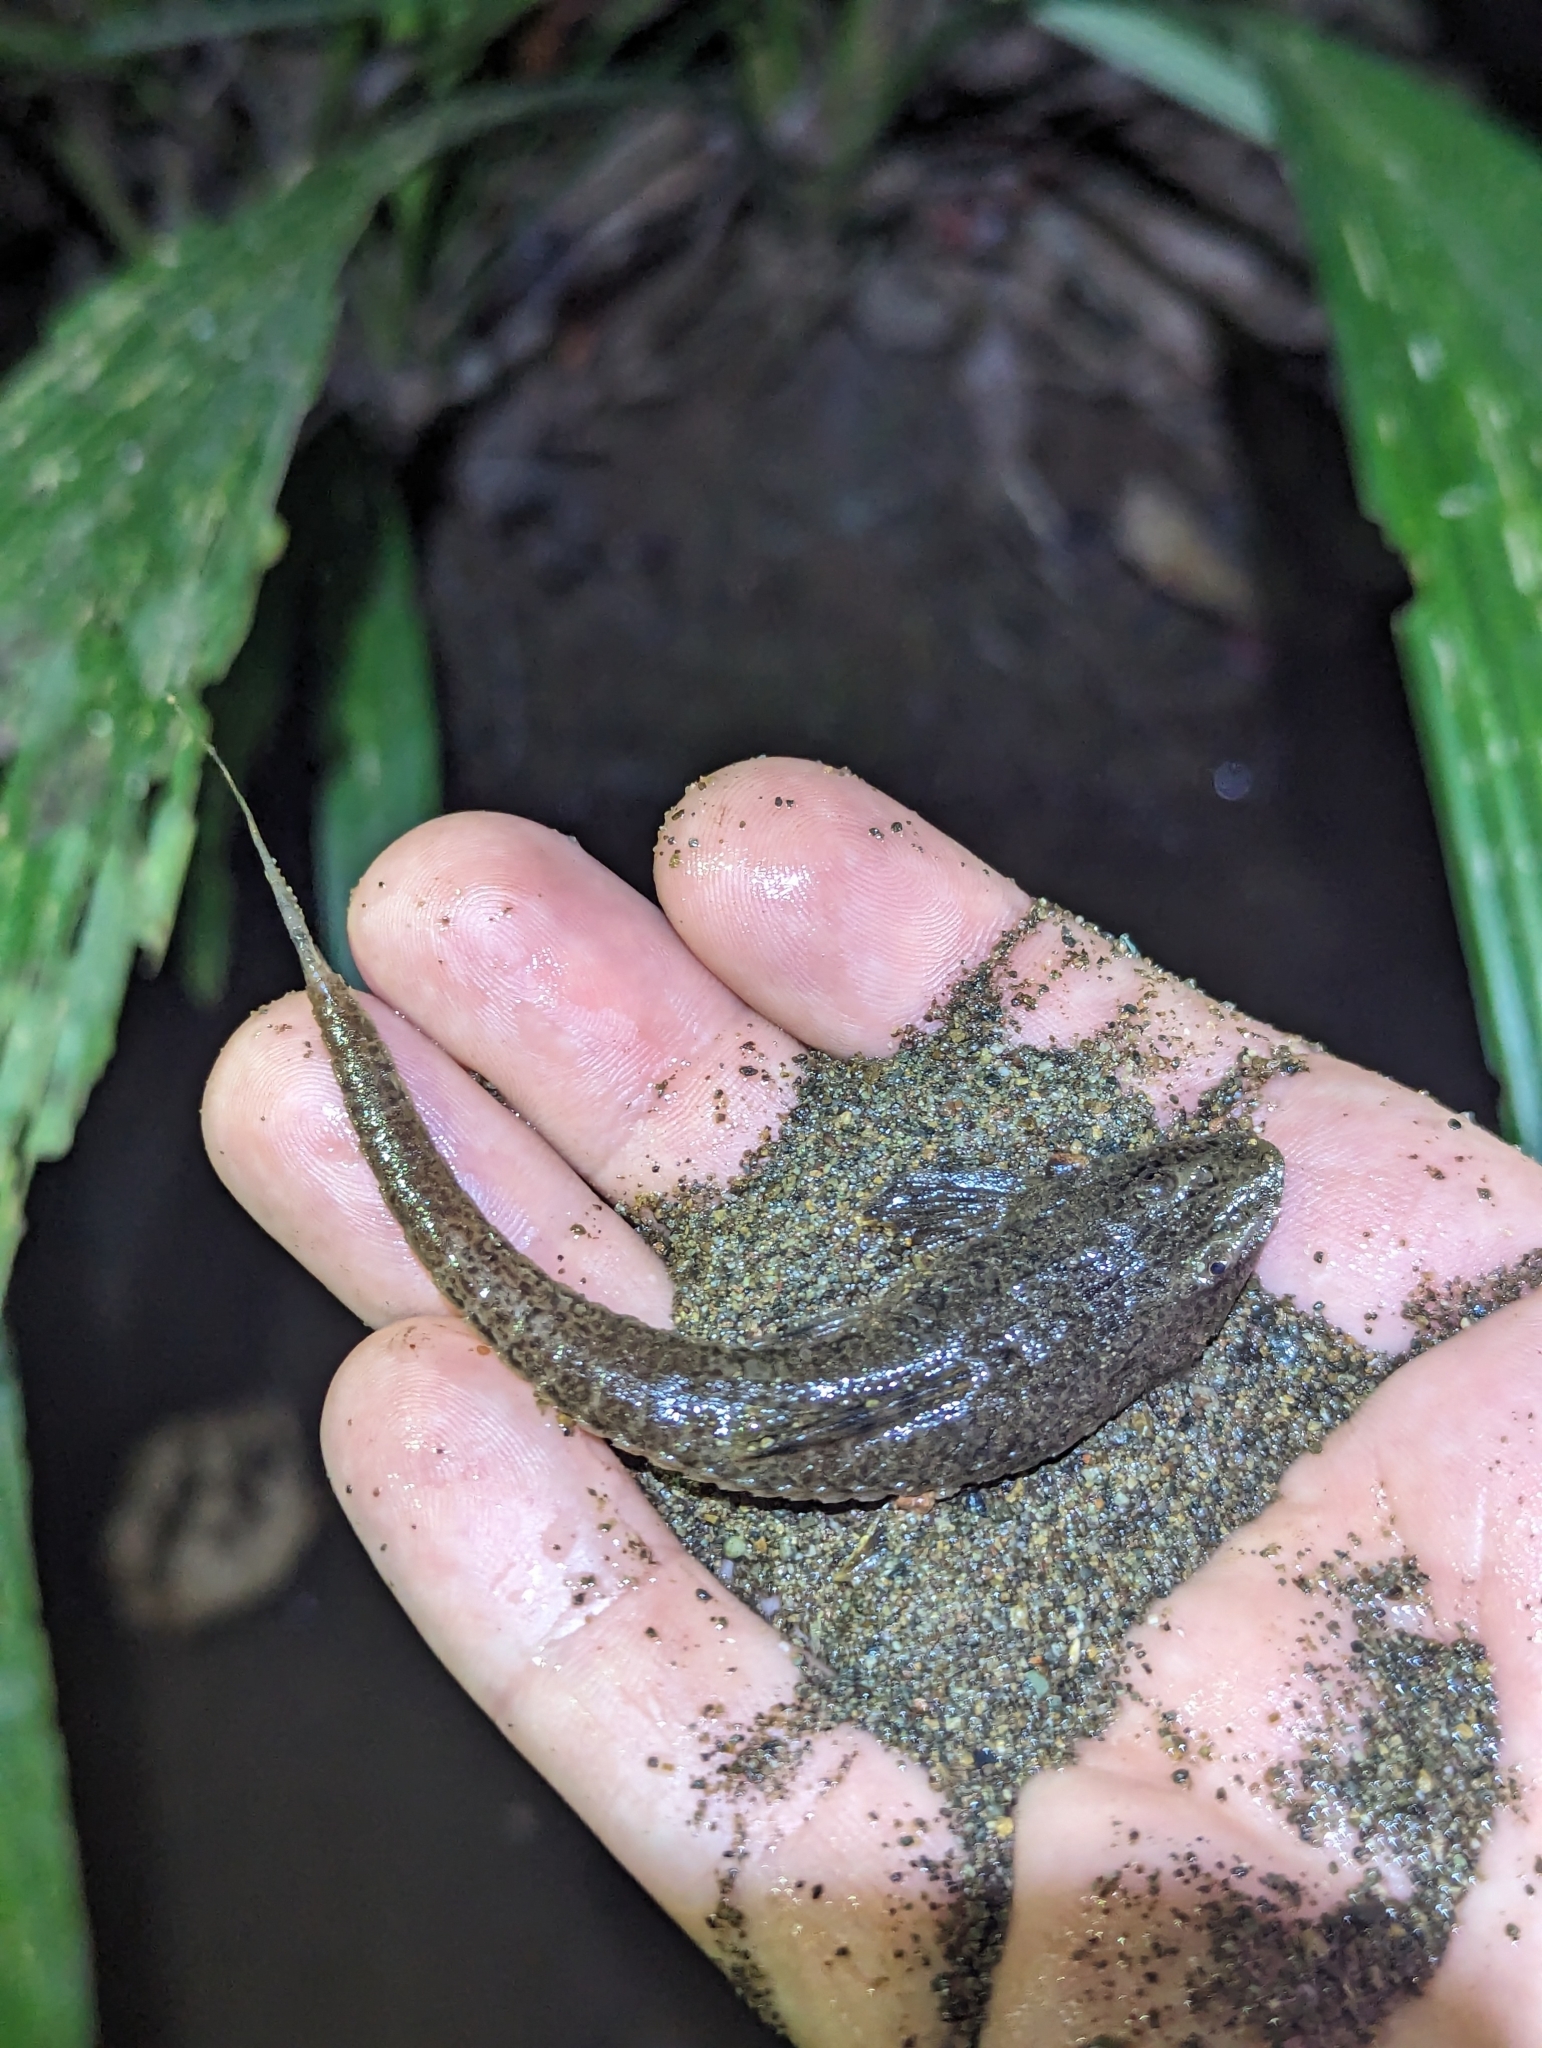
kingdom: Animalia
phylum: Chordata
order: Siluriformes
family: Loricariidae
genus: Fonchiiichthys
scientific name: Fonchiiichthys uracanthus
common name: Armored catfish
